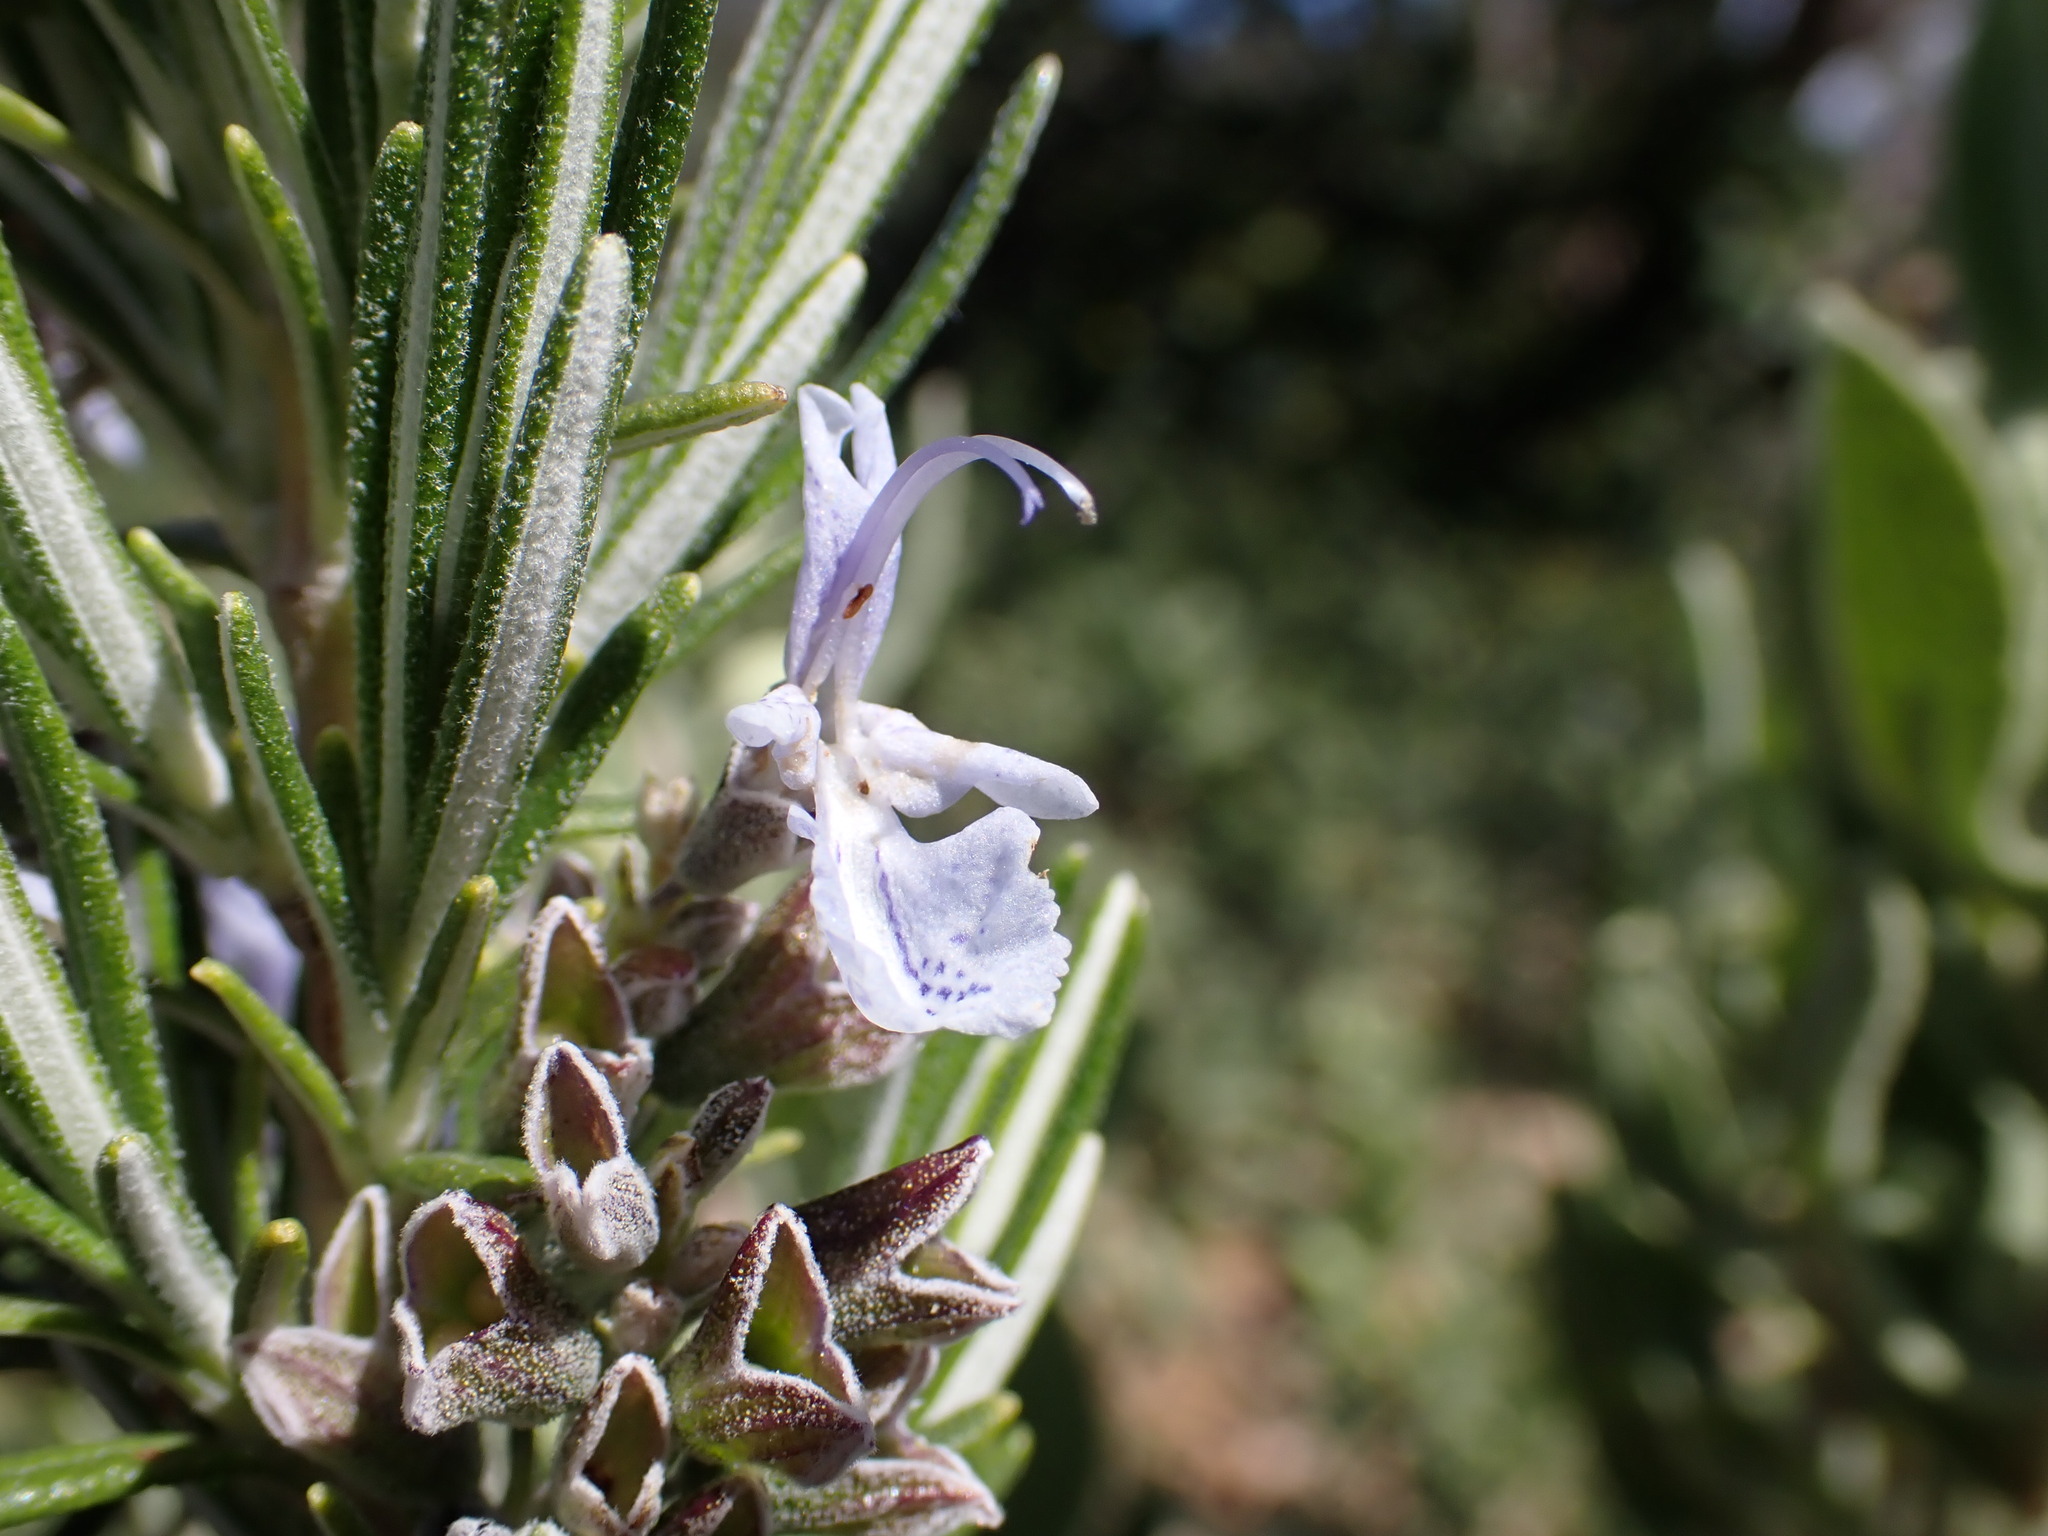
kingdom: Plantae
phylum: Tracheophyta
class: Magnoliopsida
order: Lamiales
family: Lamiaceae
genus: Salvia
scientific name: Salvia rosmarinus
